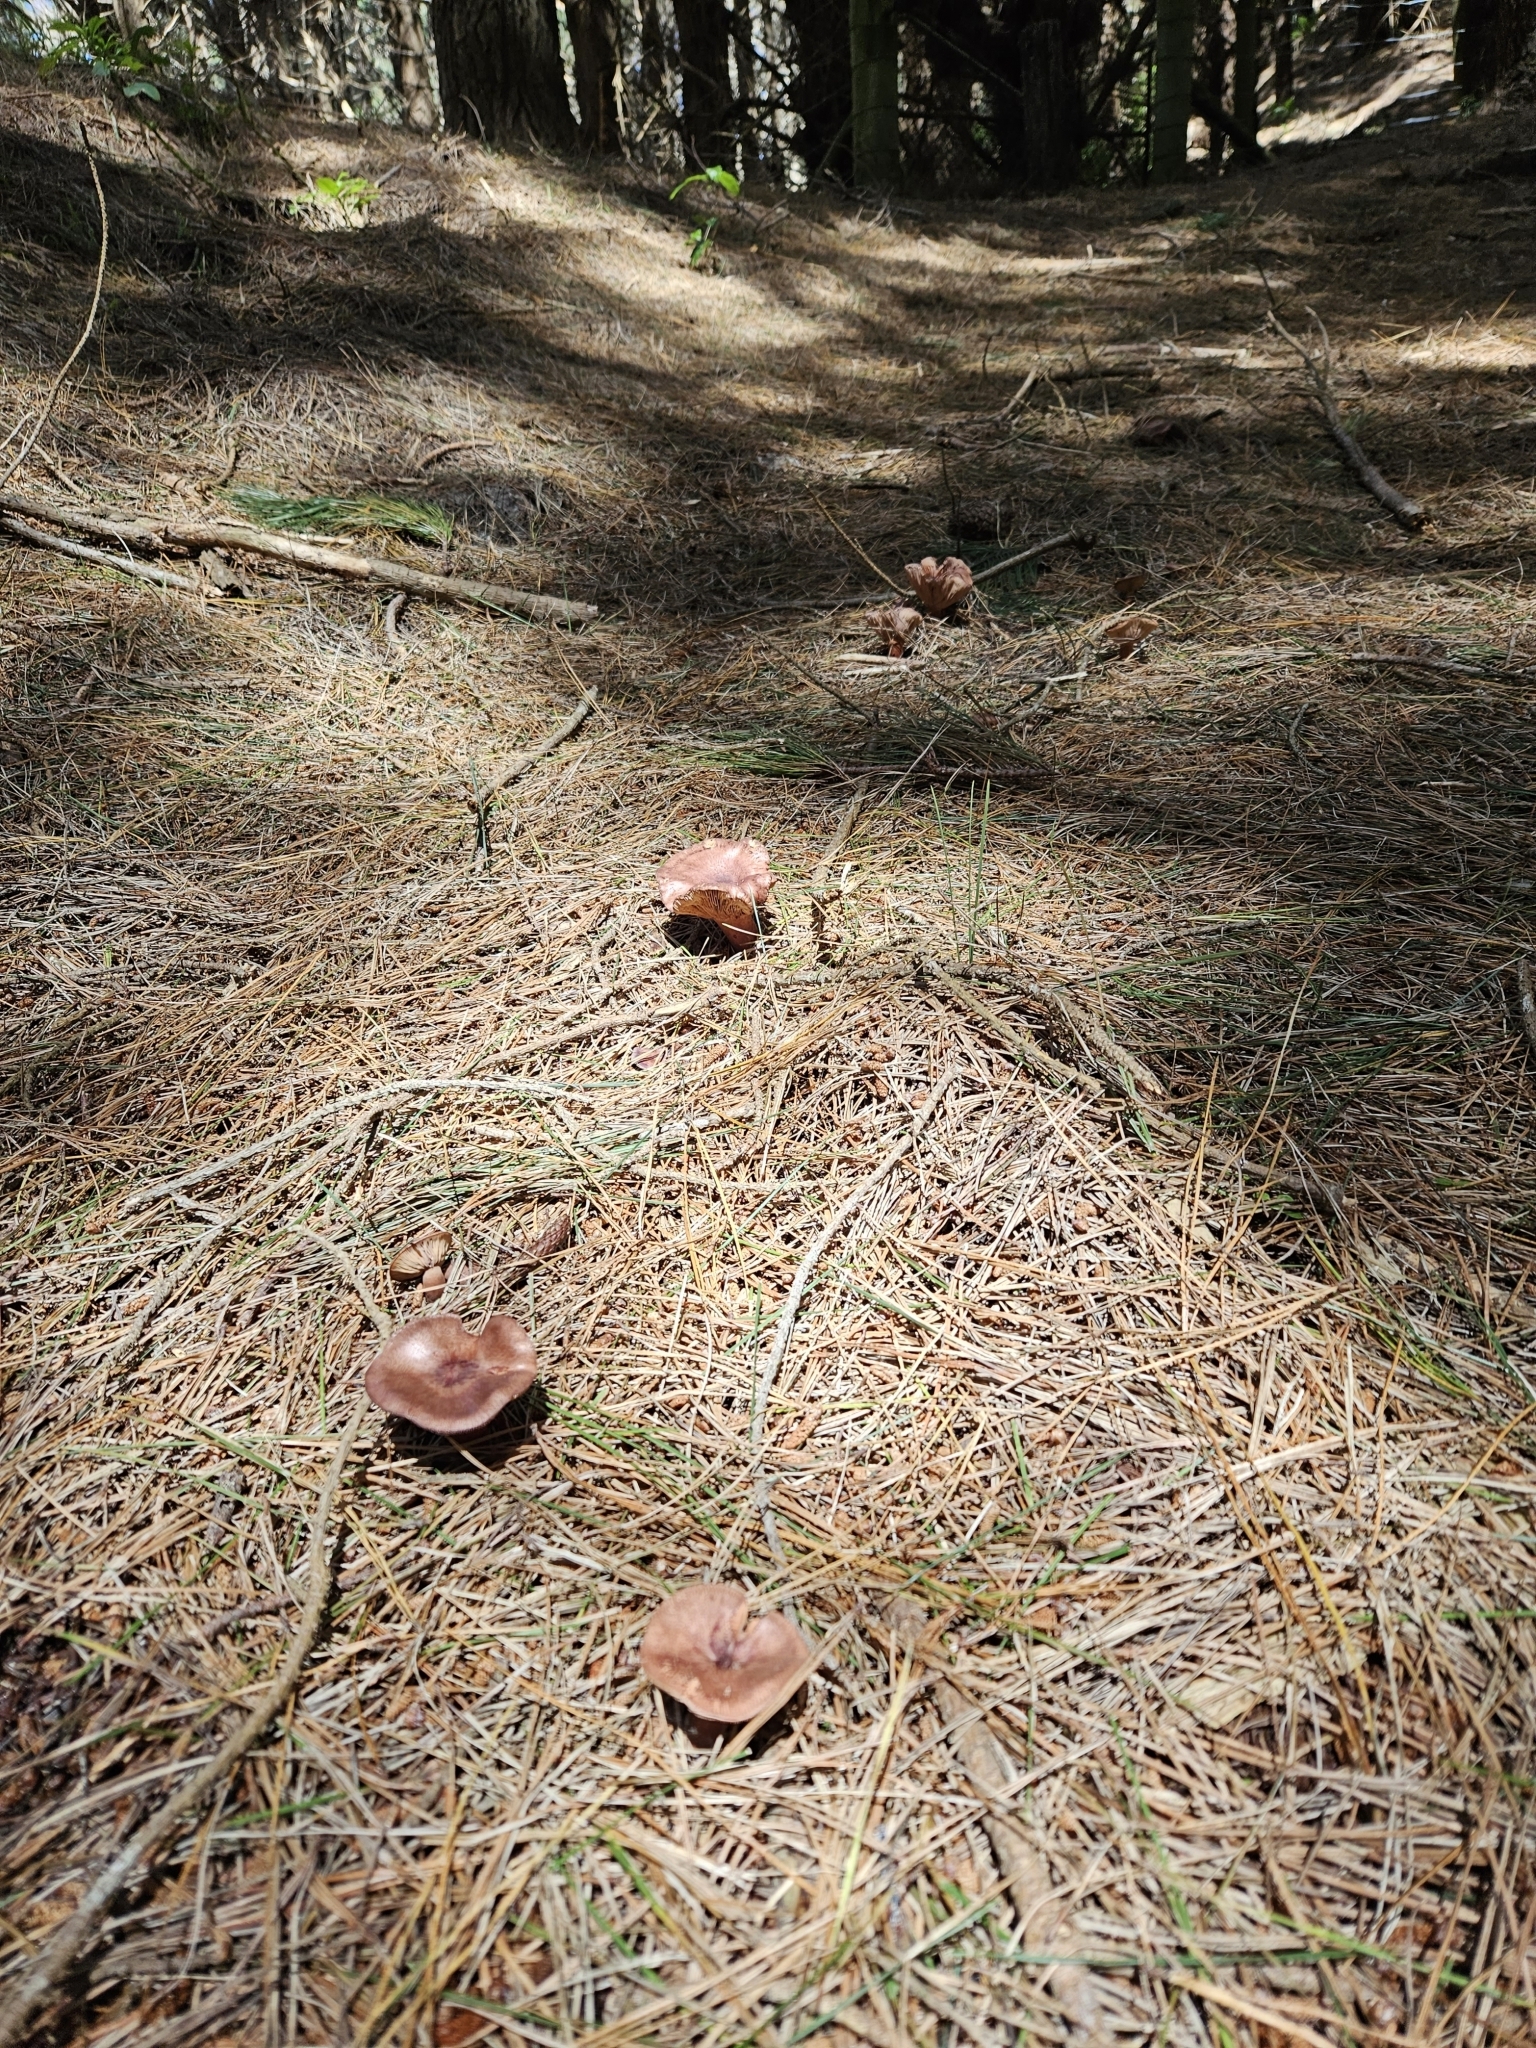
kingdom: Fungi
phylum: Basidiomycota
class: Agaricomycetes
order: Russulales
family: Russulaceae
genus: Lactarius
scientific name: Lactarius rufus
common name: Rufous milk-cap
